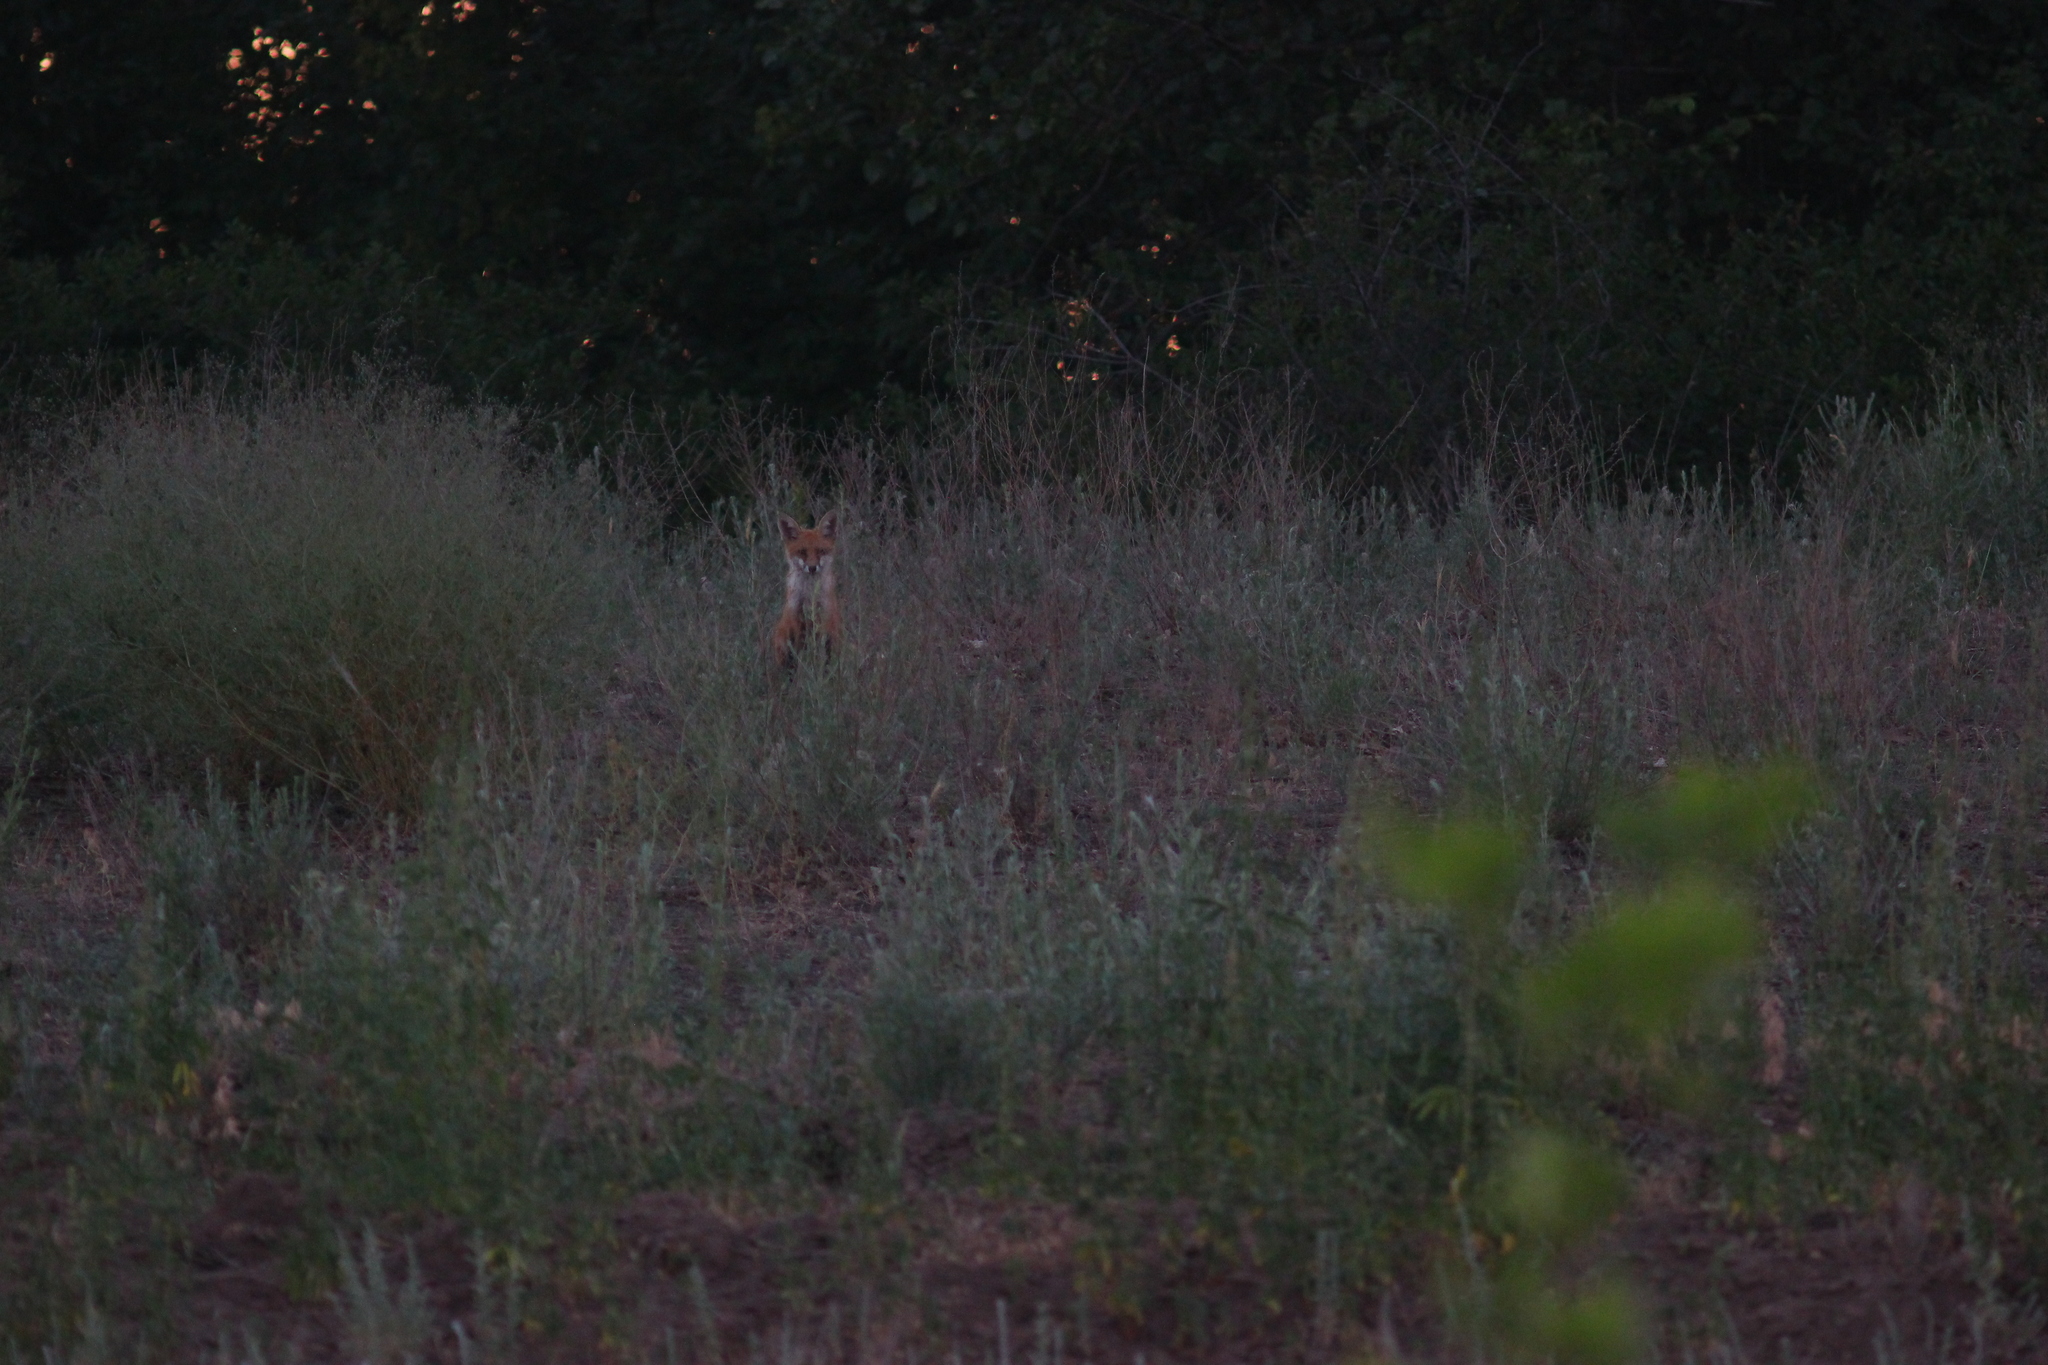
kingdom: Animalia
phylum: Chordata
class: Mammalia
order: Carnivora
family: Canidae
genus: Vulpes
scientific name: Vulpes vulpes
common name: Red fox
